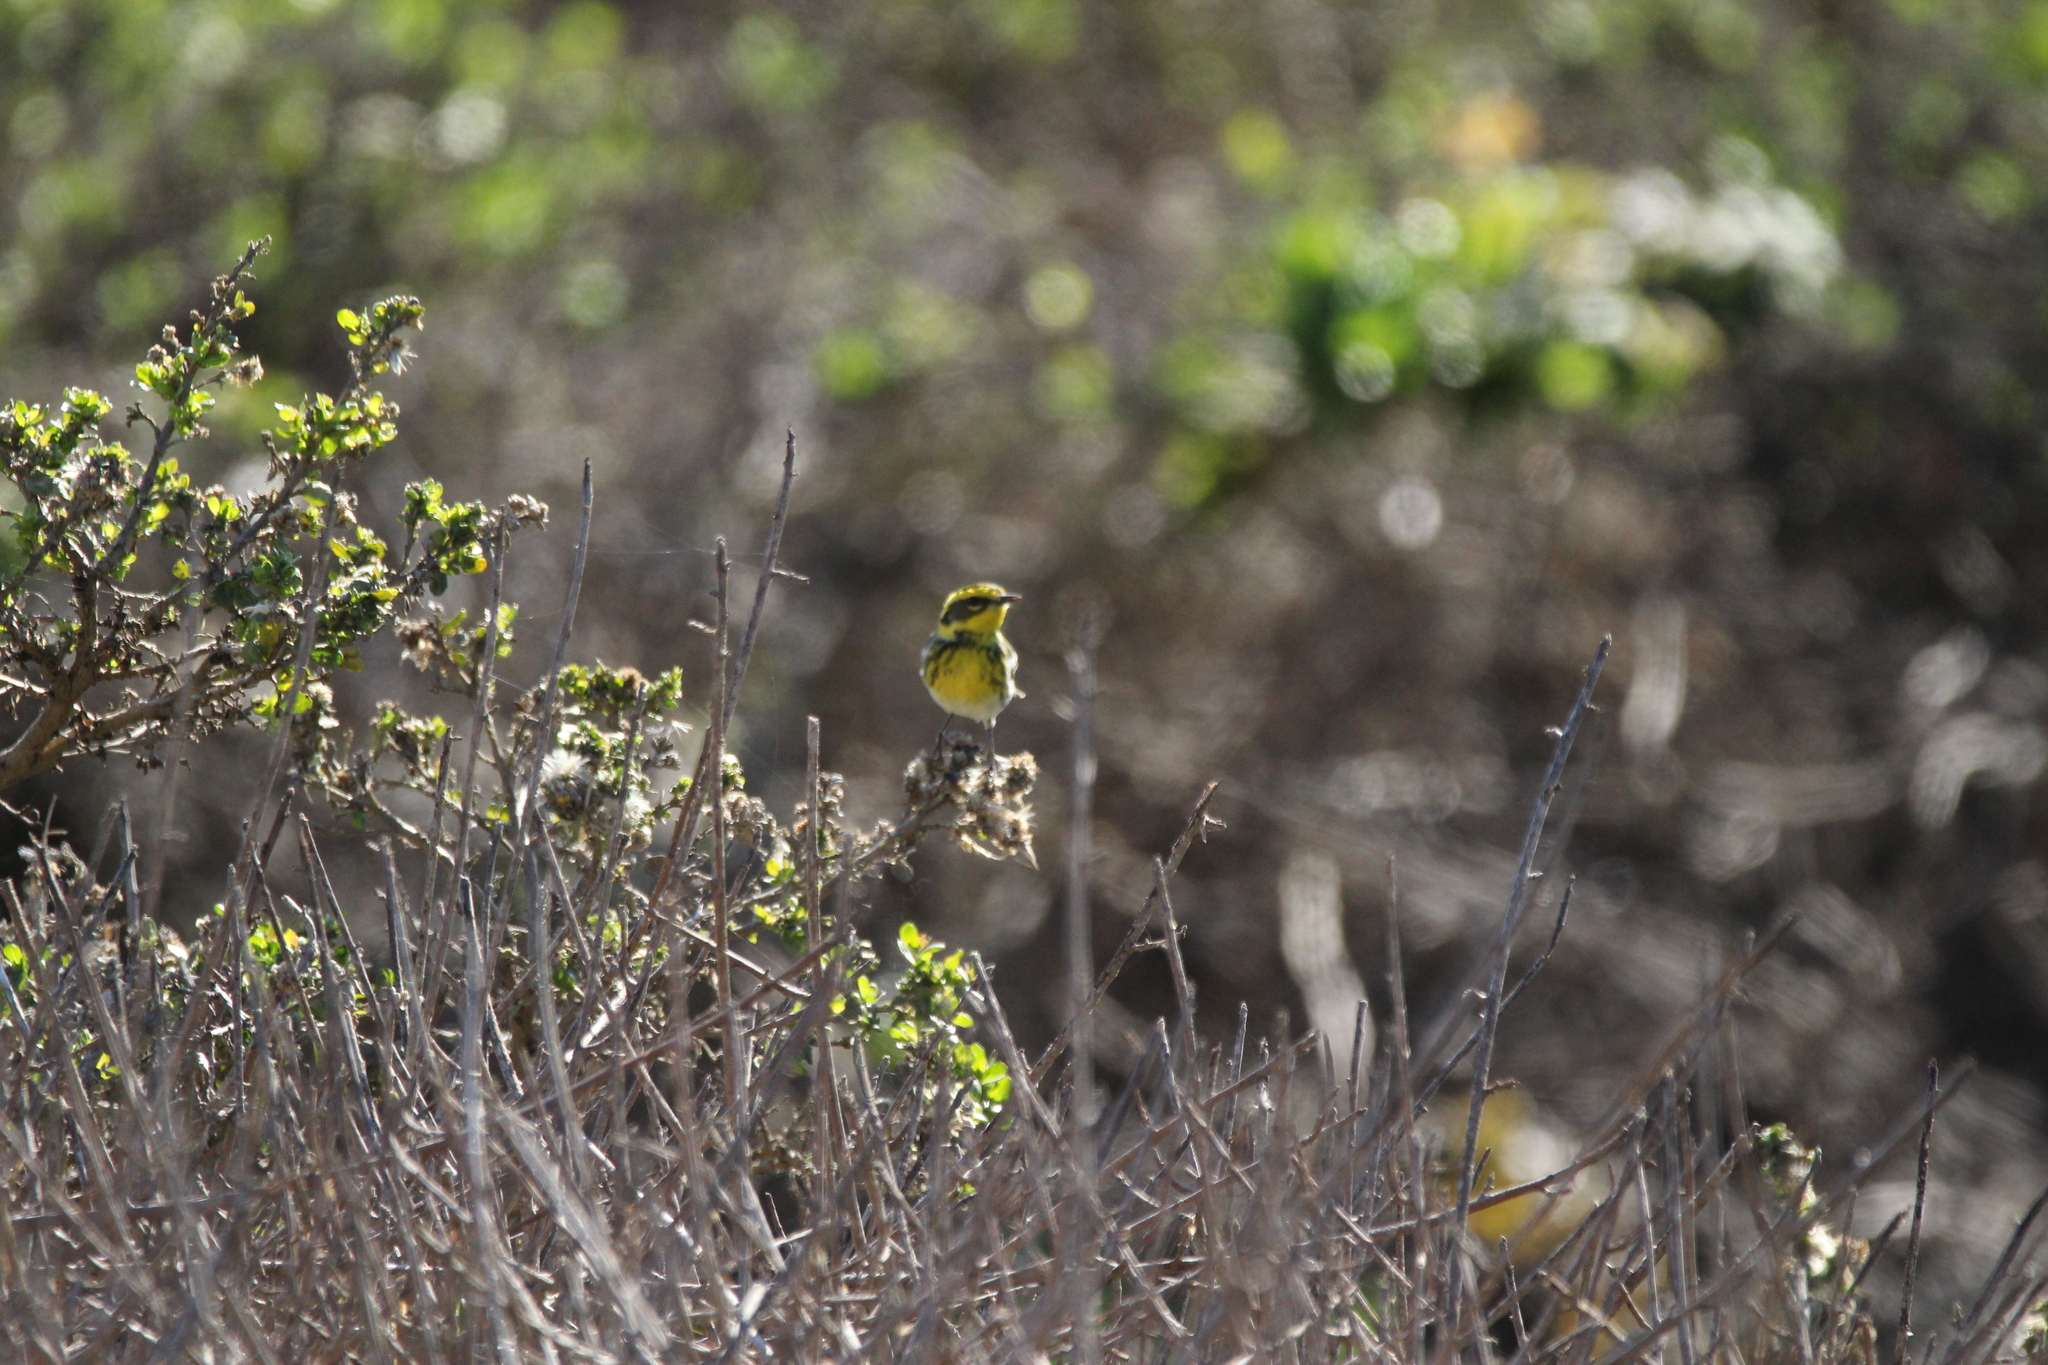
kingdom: Animalia
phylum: Chordata
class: Aves
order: Passeriformes
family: Parulidae
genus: Setophaga
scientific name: Setophaga townsendi
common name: Townsend's warbler
